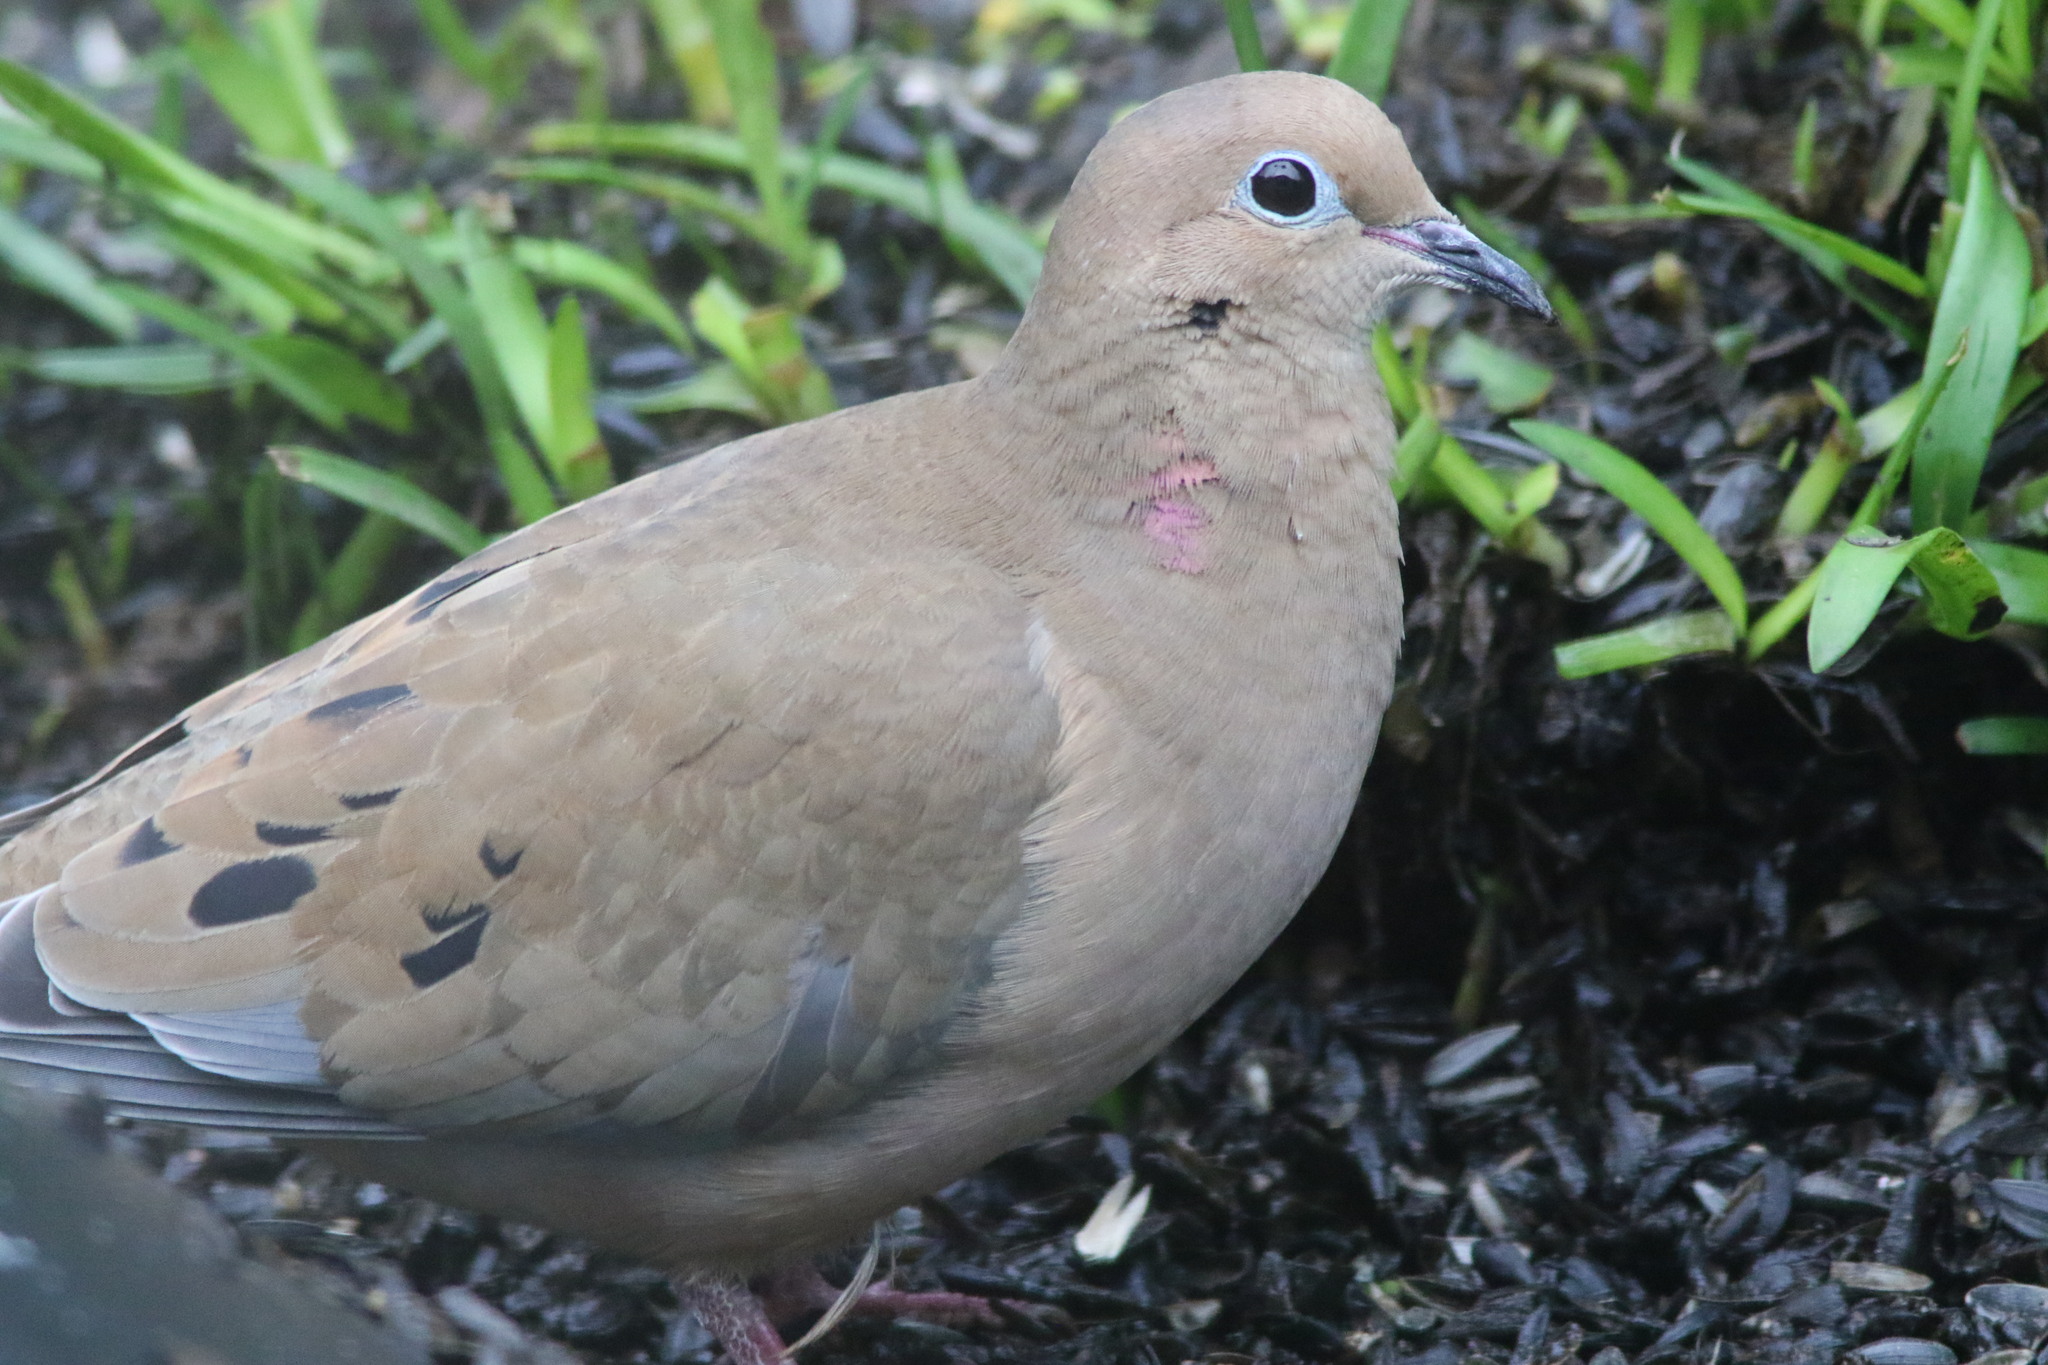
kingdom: Animalia
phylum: Chordata
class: Aves
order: Columbiformes
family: Columbidae
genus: Zenaida
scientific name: Zenaida macroura
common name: Mourning dove
